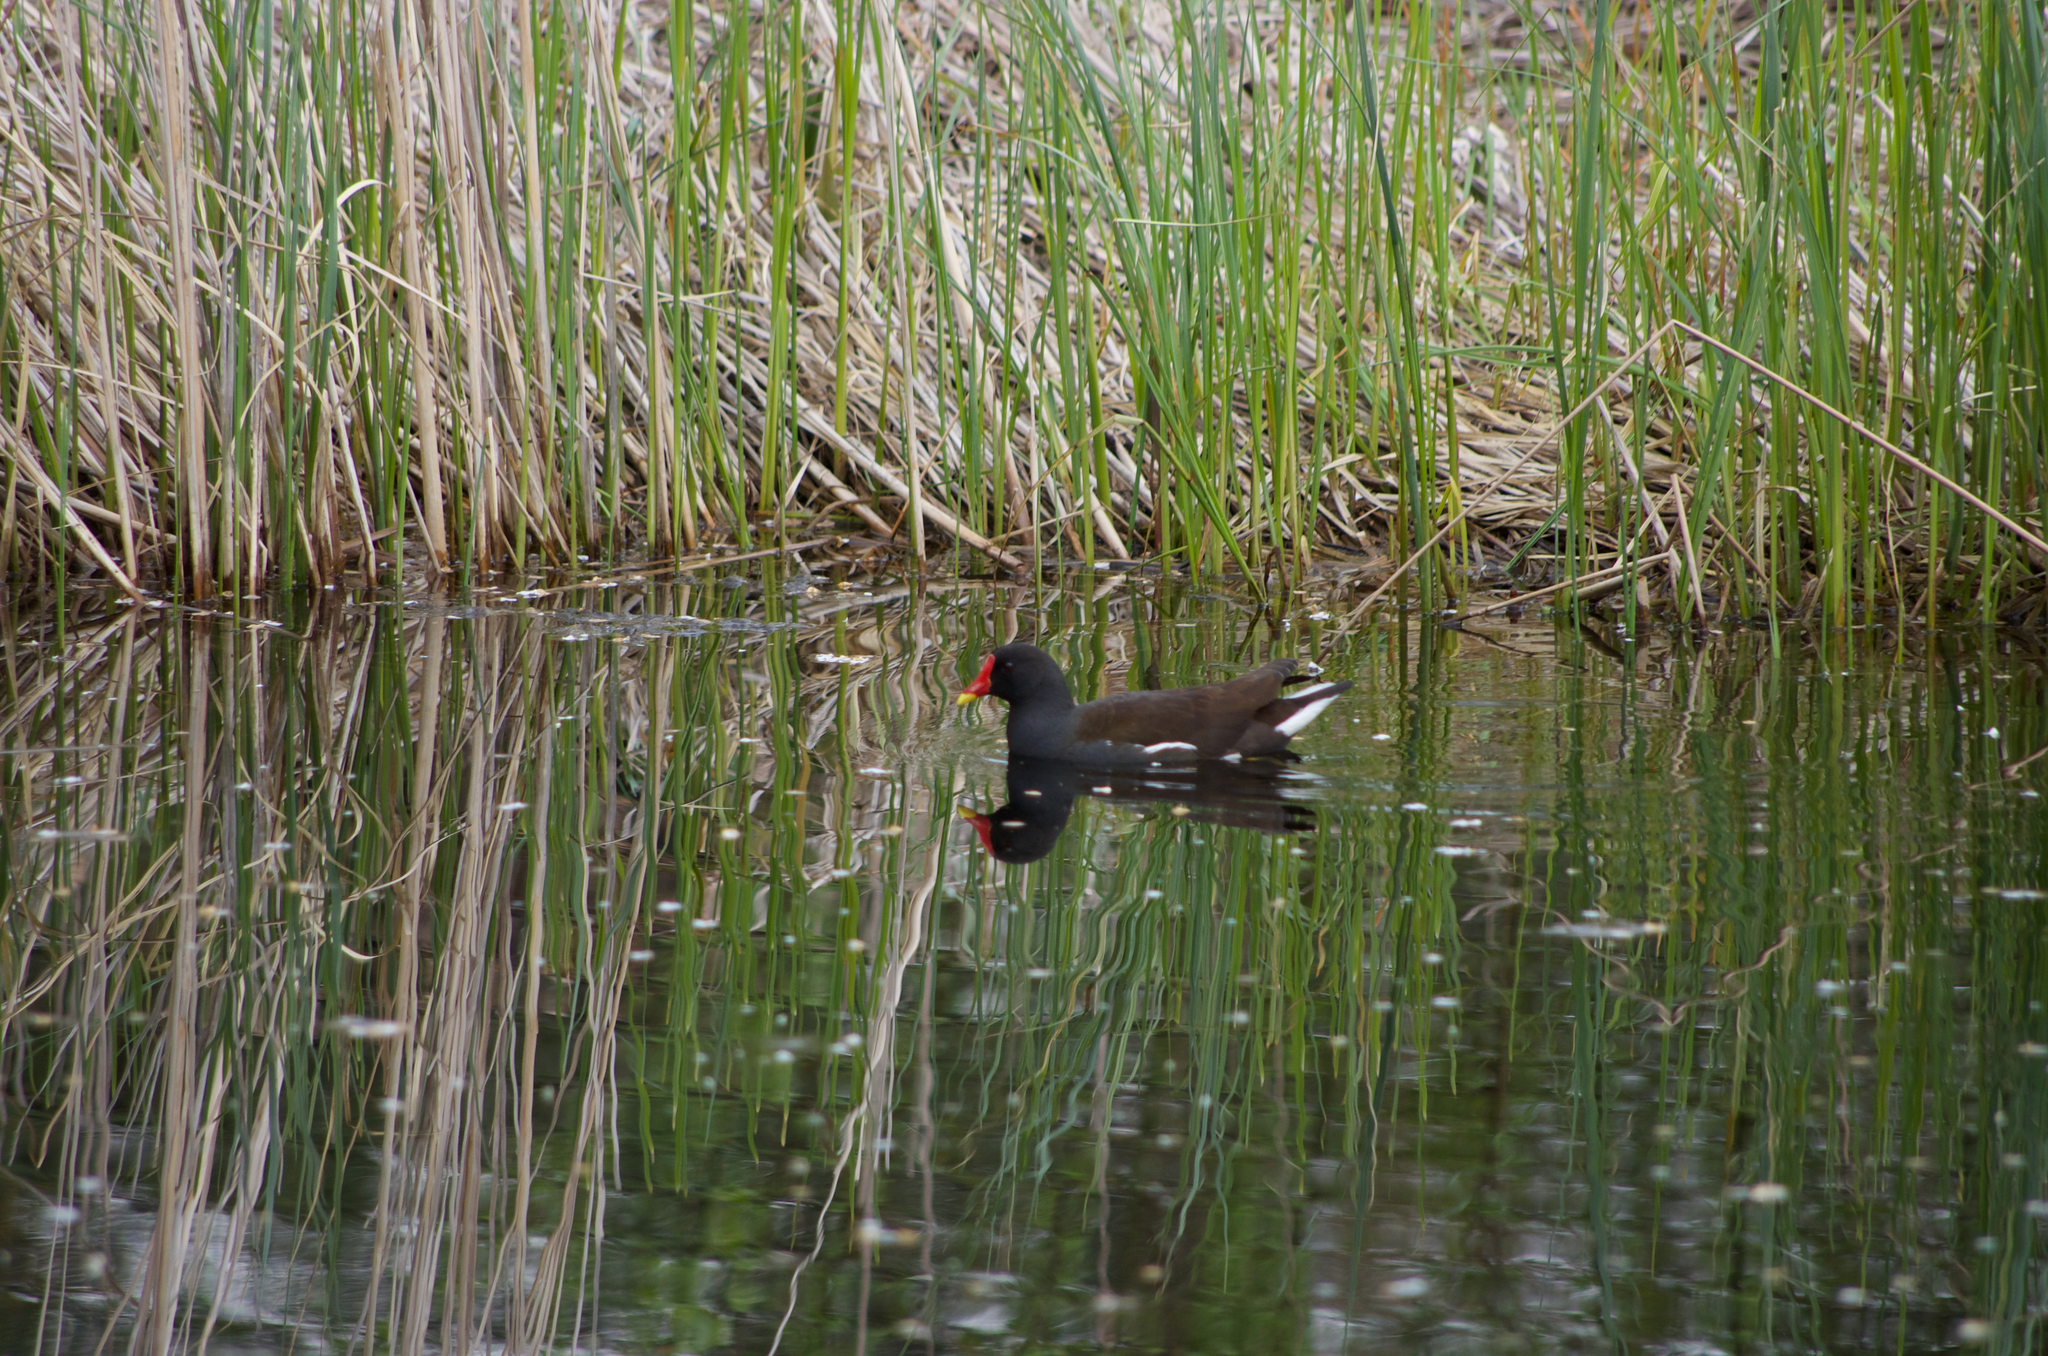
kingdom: Animalia
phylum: Chordata
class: Aves
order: Gruiformes
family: Rallidae
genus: Gallinula
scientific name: Gallinula chloropus
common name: Common moorhen
